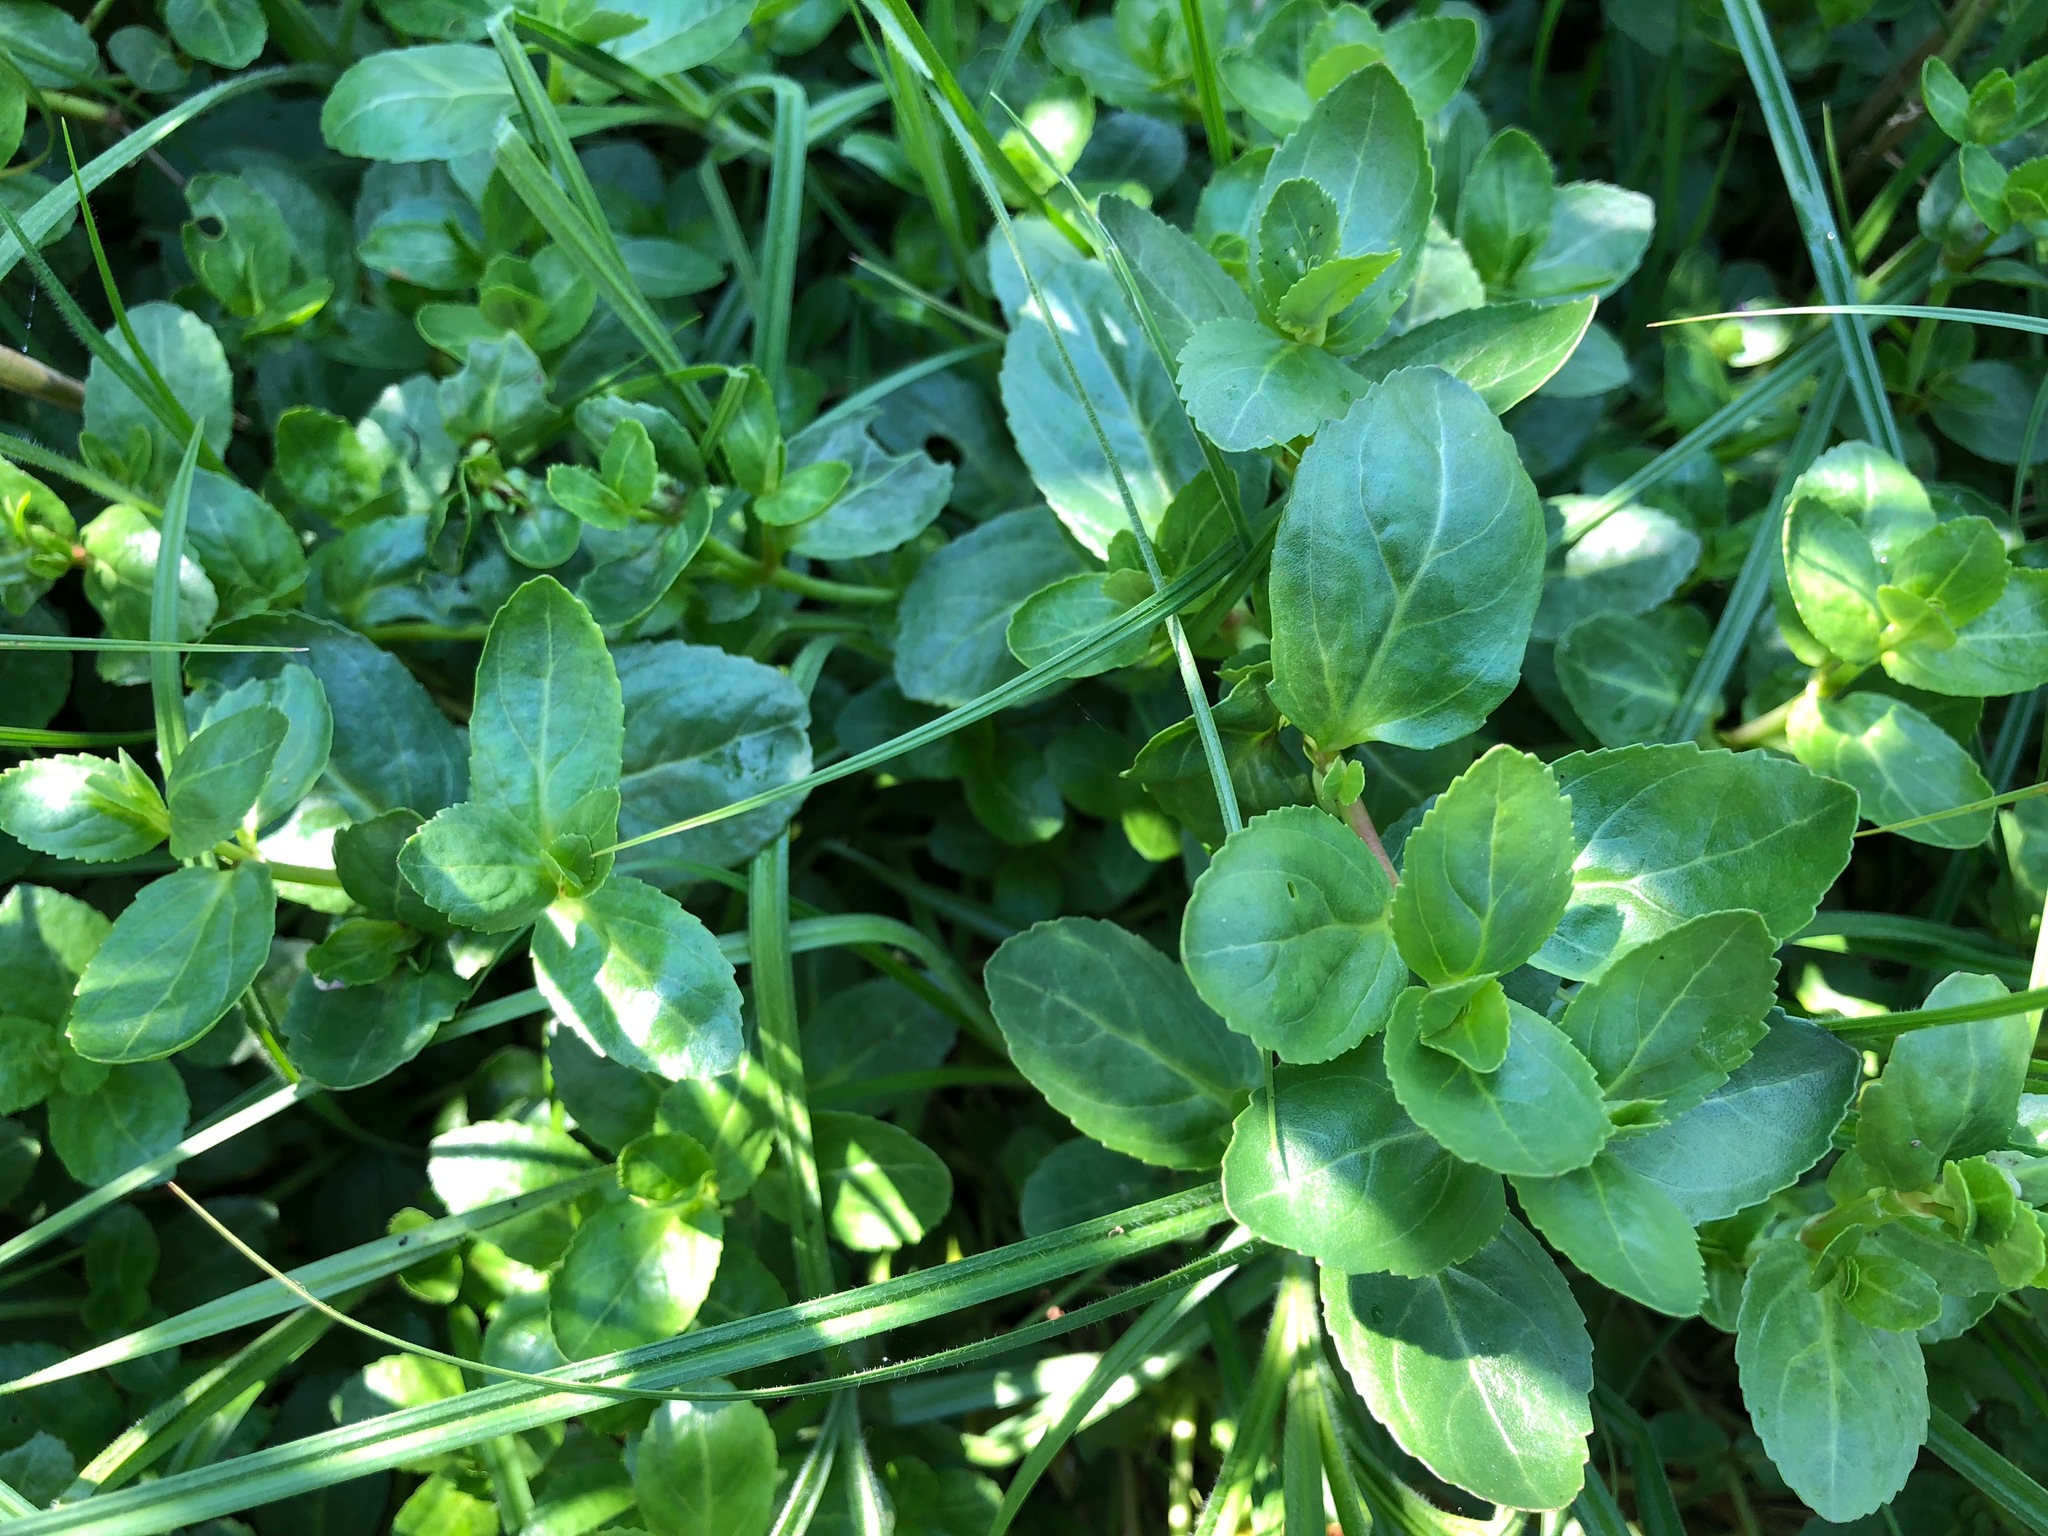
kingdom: Plantae
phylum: Tracheophyta
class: Magnoliopsida
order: Lamiales
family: Plantaginaceae
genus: Veronica
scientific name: Veronica beccabunga
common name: Brooklime
